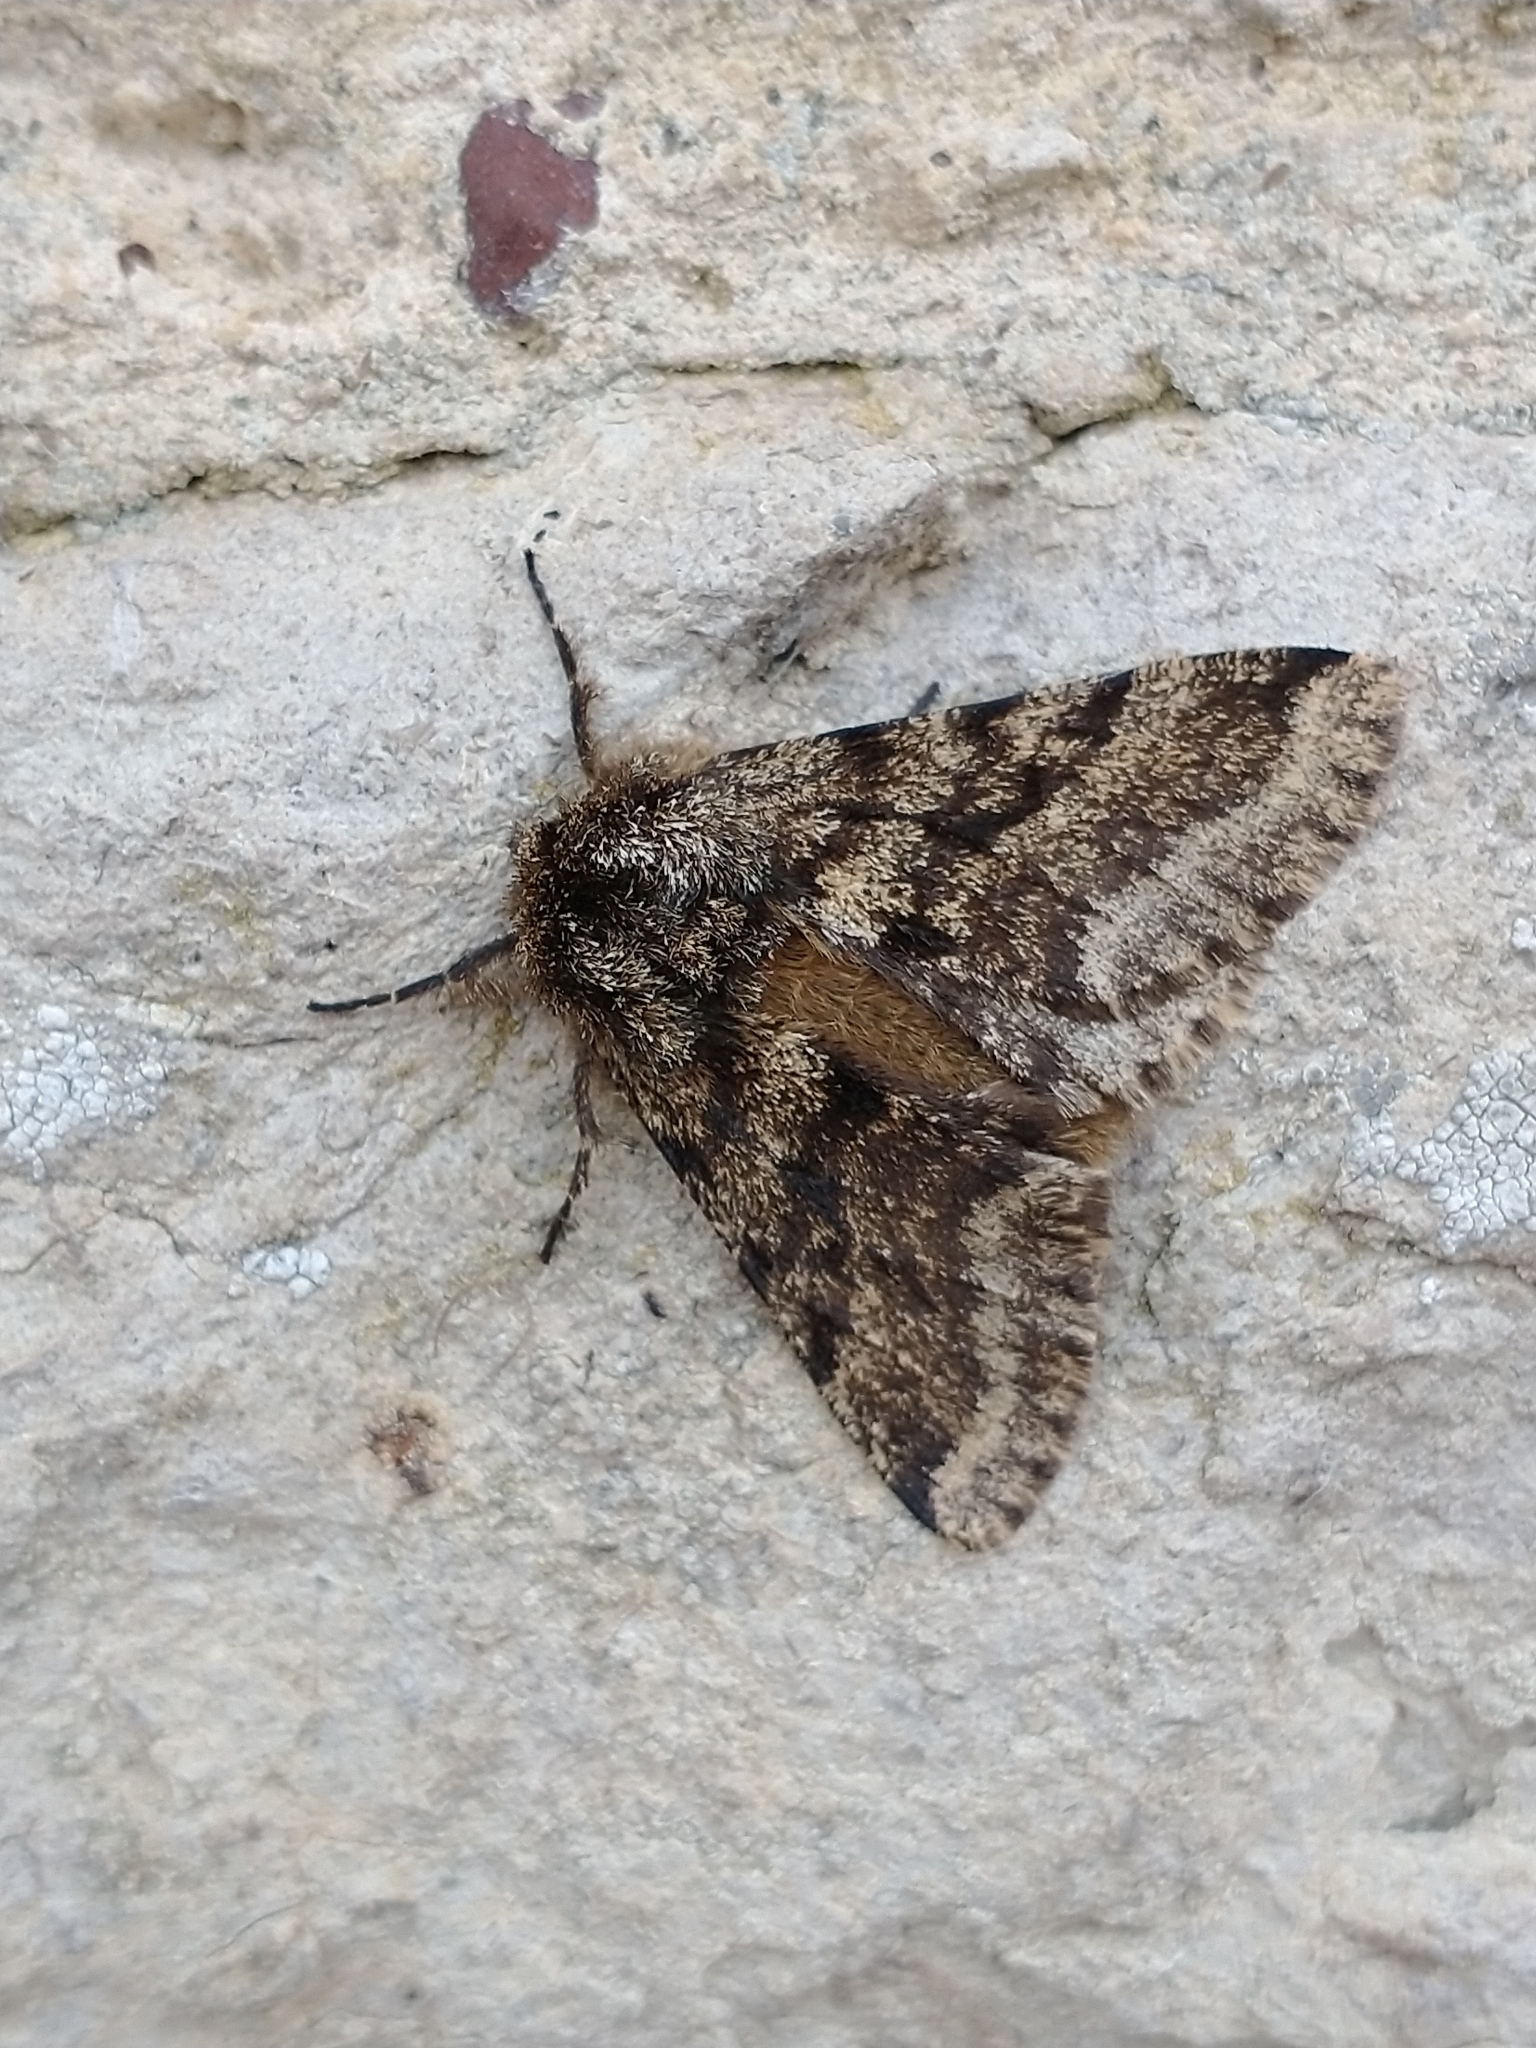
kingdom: Animalia
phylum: Arthropoda
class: Insecta
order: Lepidoptera
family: Geometridae
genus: Lycia
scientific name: Lycia hirtaria
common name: Brindled beauty
